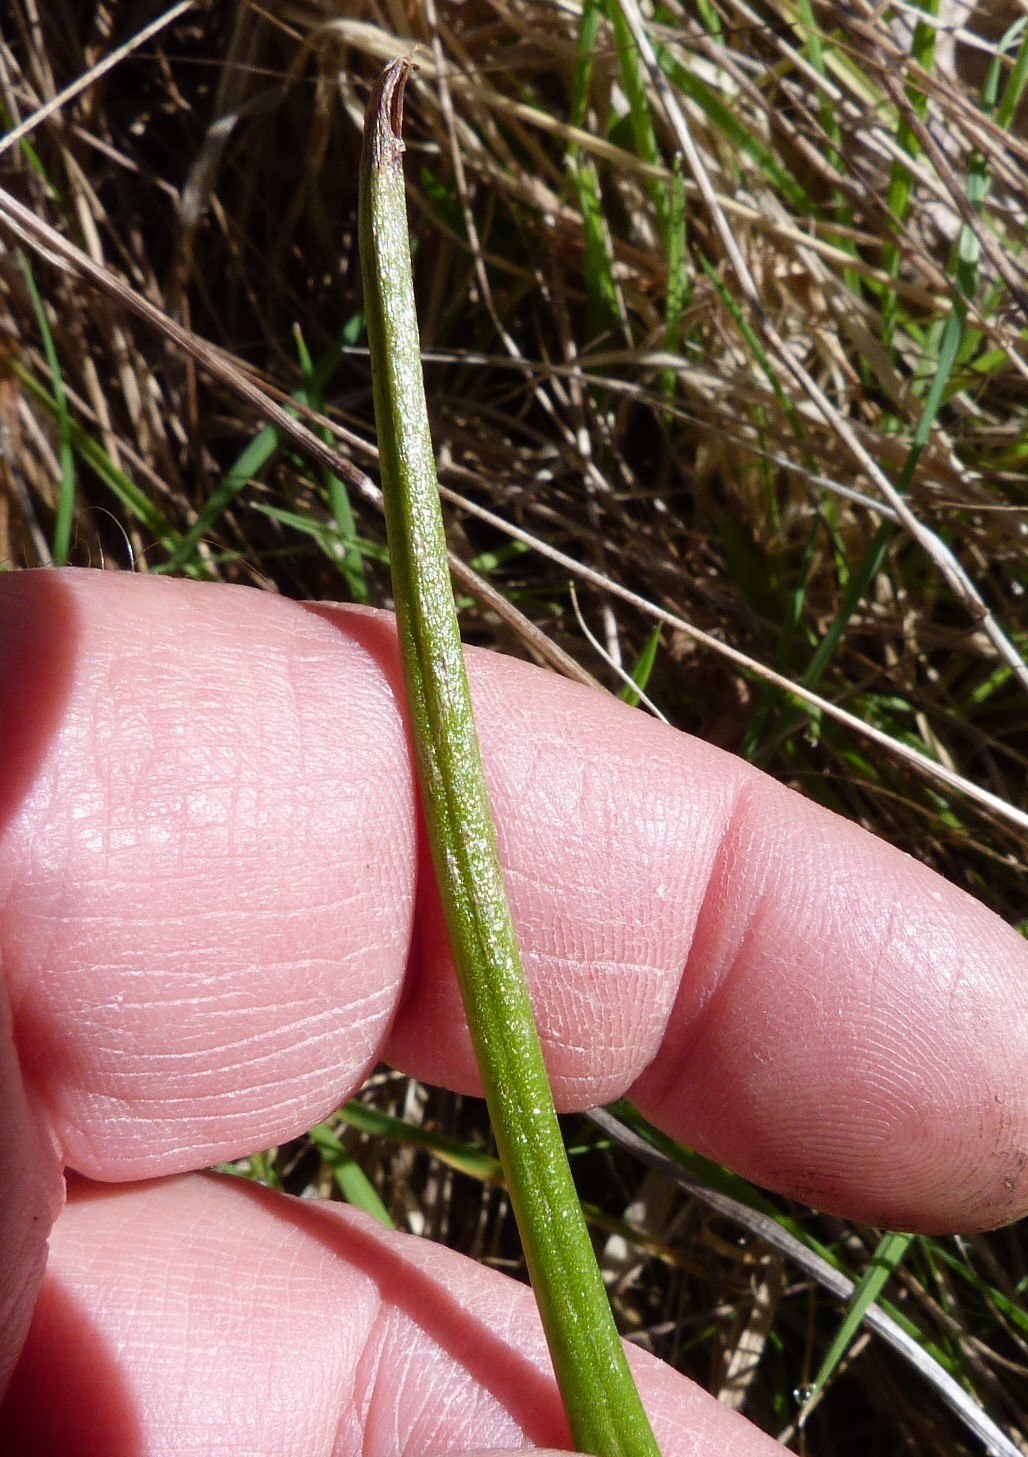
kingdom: Plantae
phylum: Tracheophyta
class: Liliopsida
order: Asparagales
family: Orchidaceae
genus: Microtis
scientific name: Microtis unifolia
